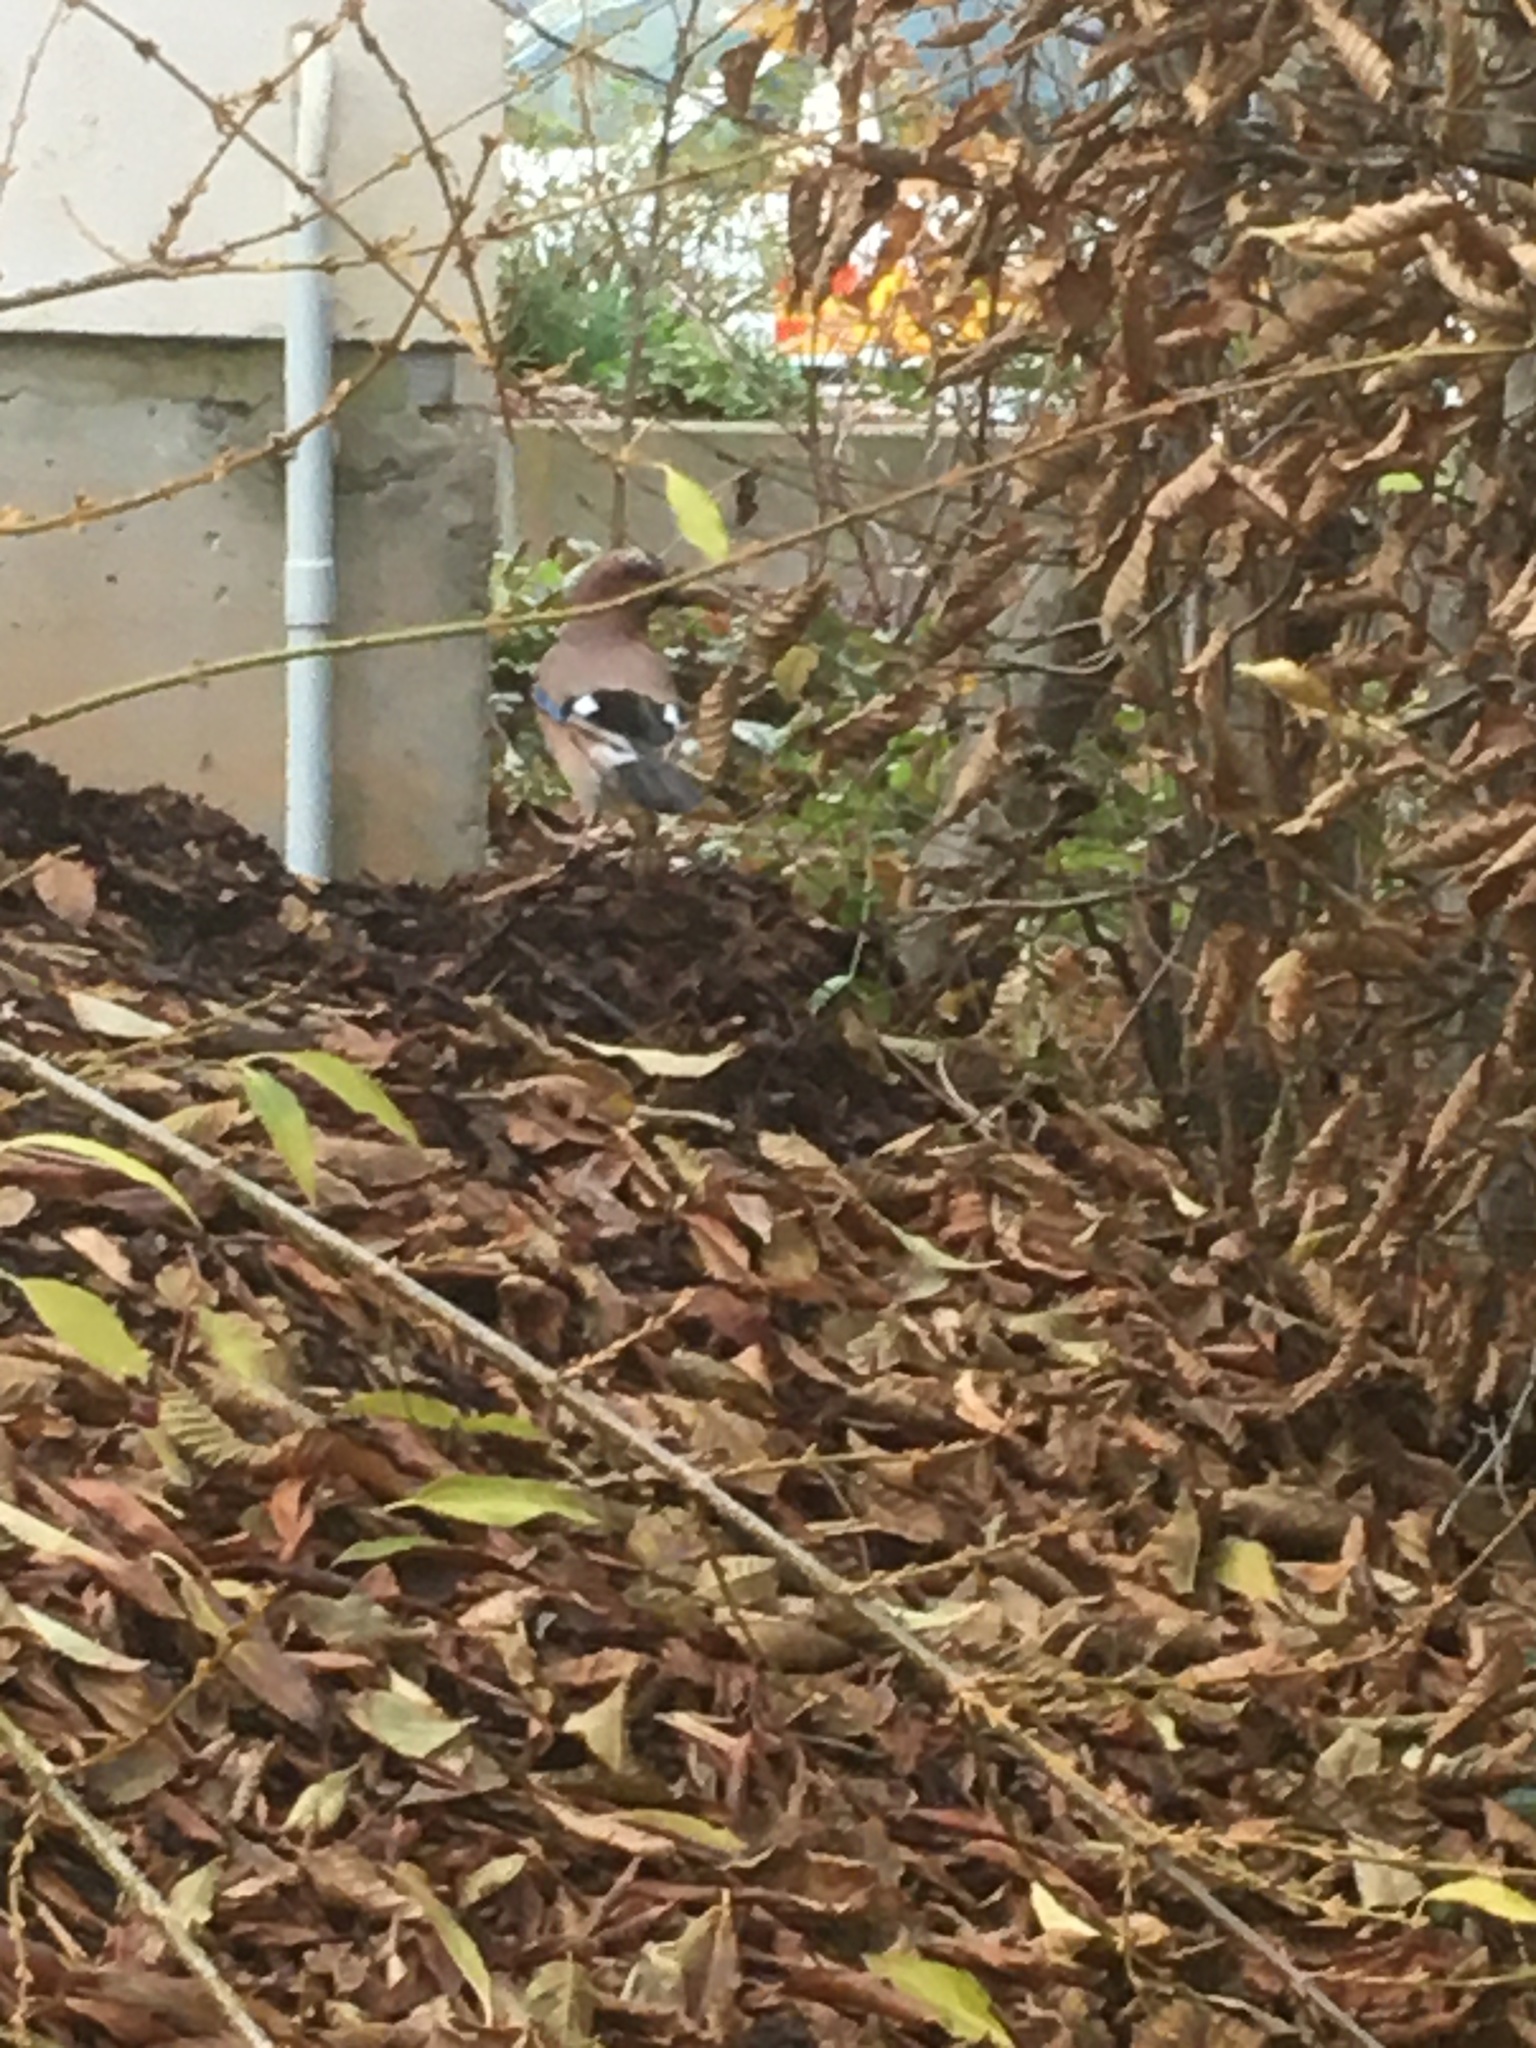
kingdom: Animalia
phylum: Chordata
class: Aves
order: Passeriformes
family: Corvidae
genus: Garrulus
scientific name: Garrulus glandarius
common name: Eurasian jay
